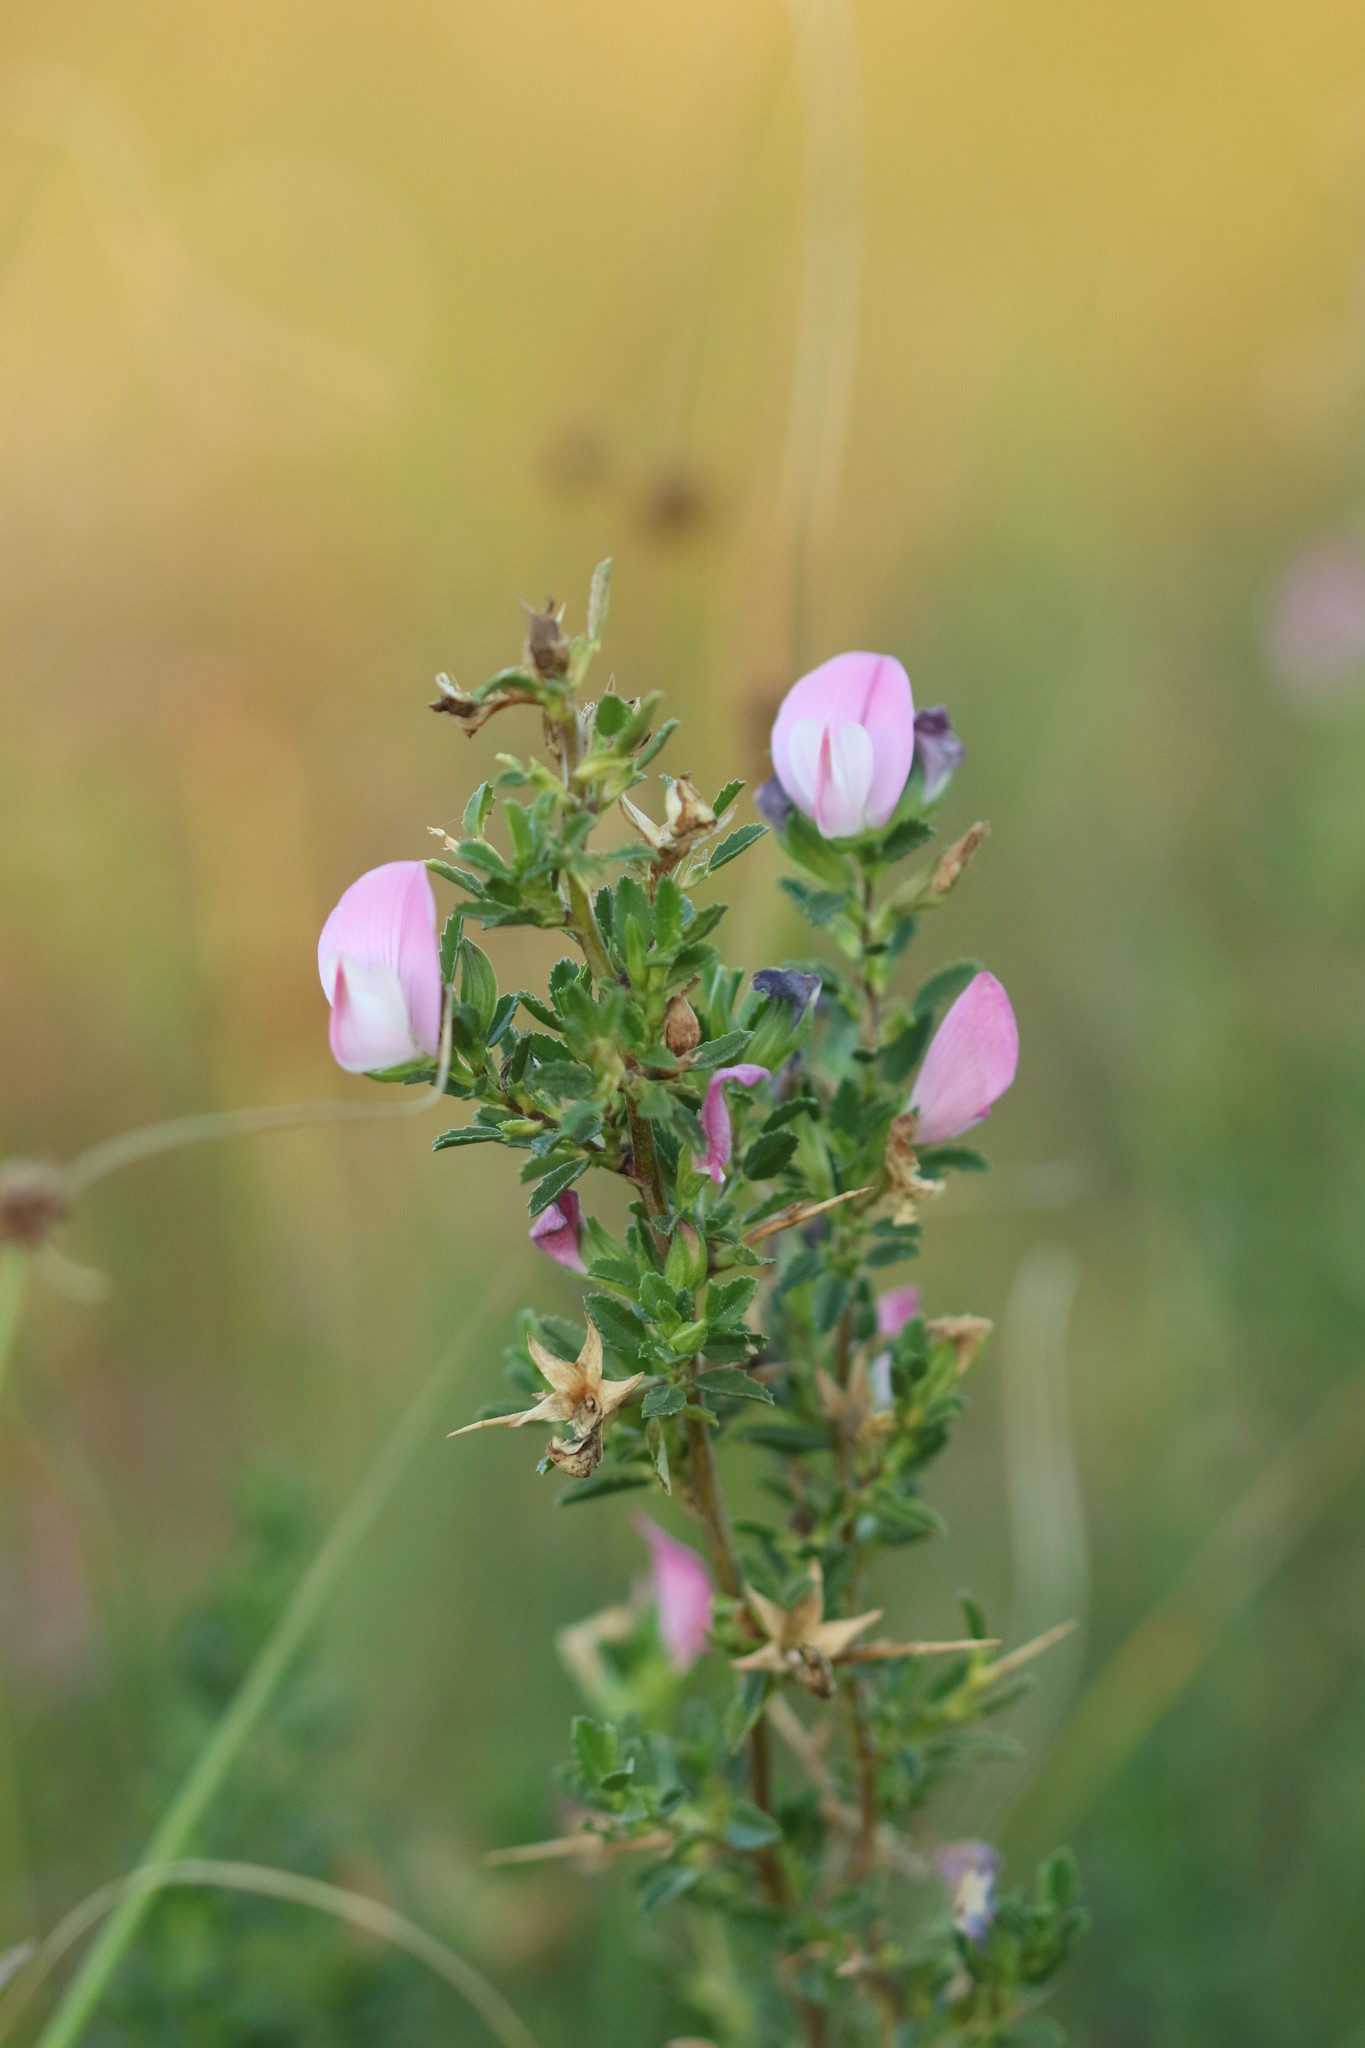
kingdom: Plantae
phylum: Tracheophyta
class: Magnoliopsida
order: Fabales
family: Fabaceae
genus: Ononis
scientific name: Ononis spinosa
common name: Spiny restharrow
